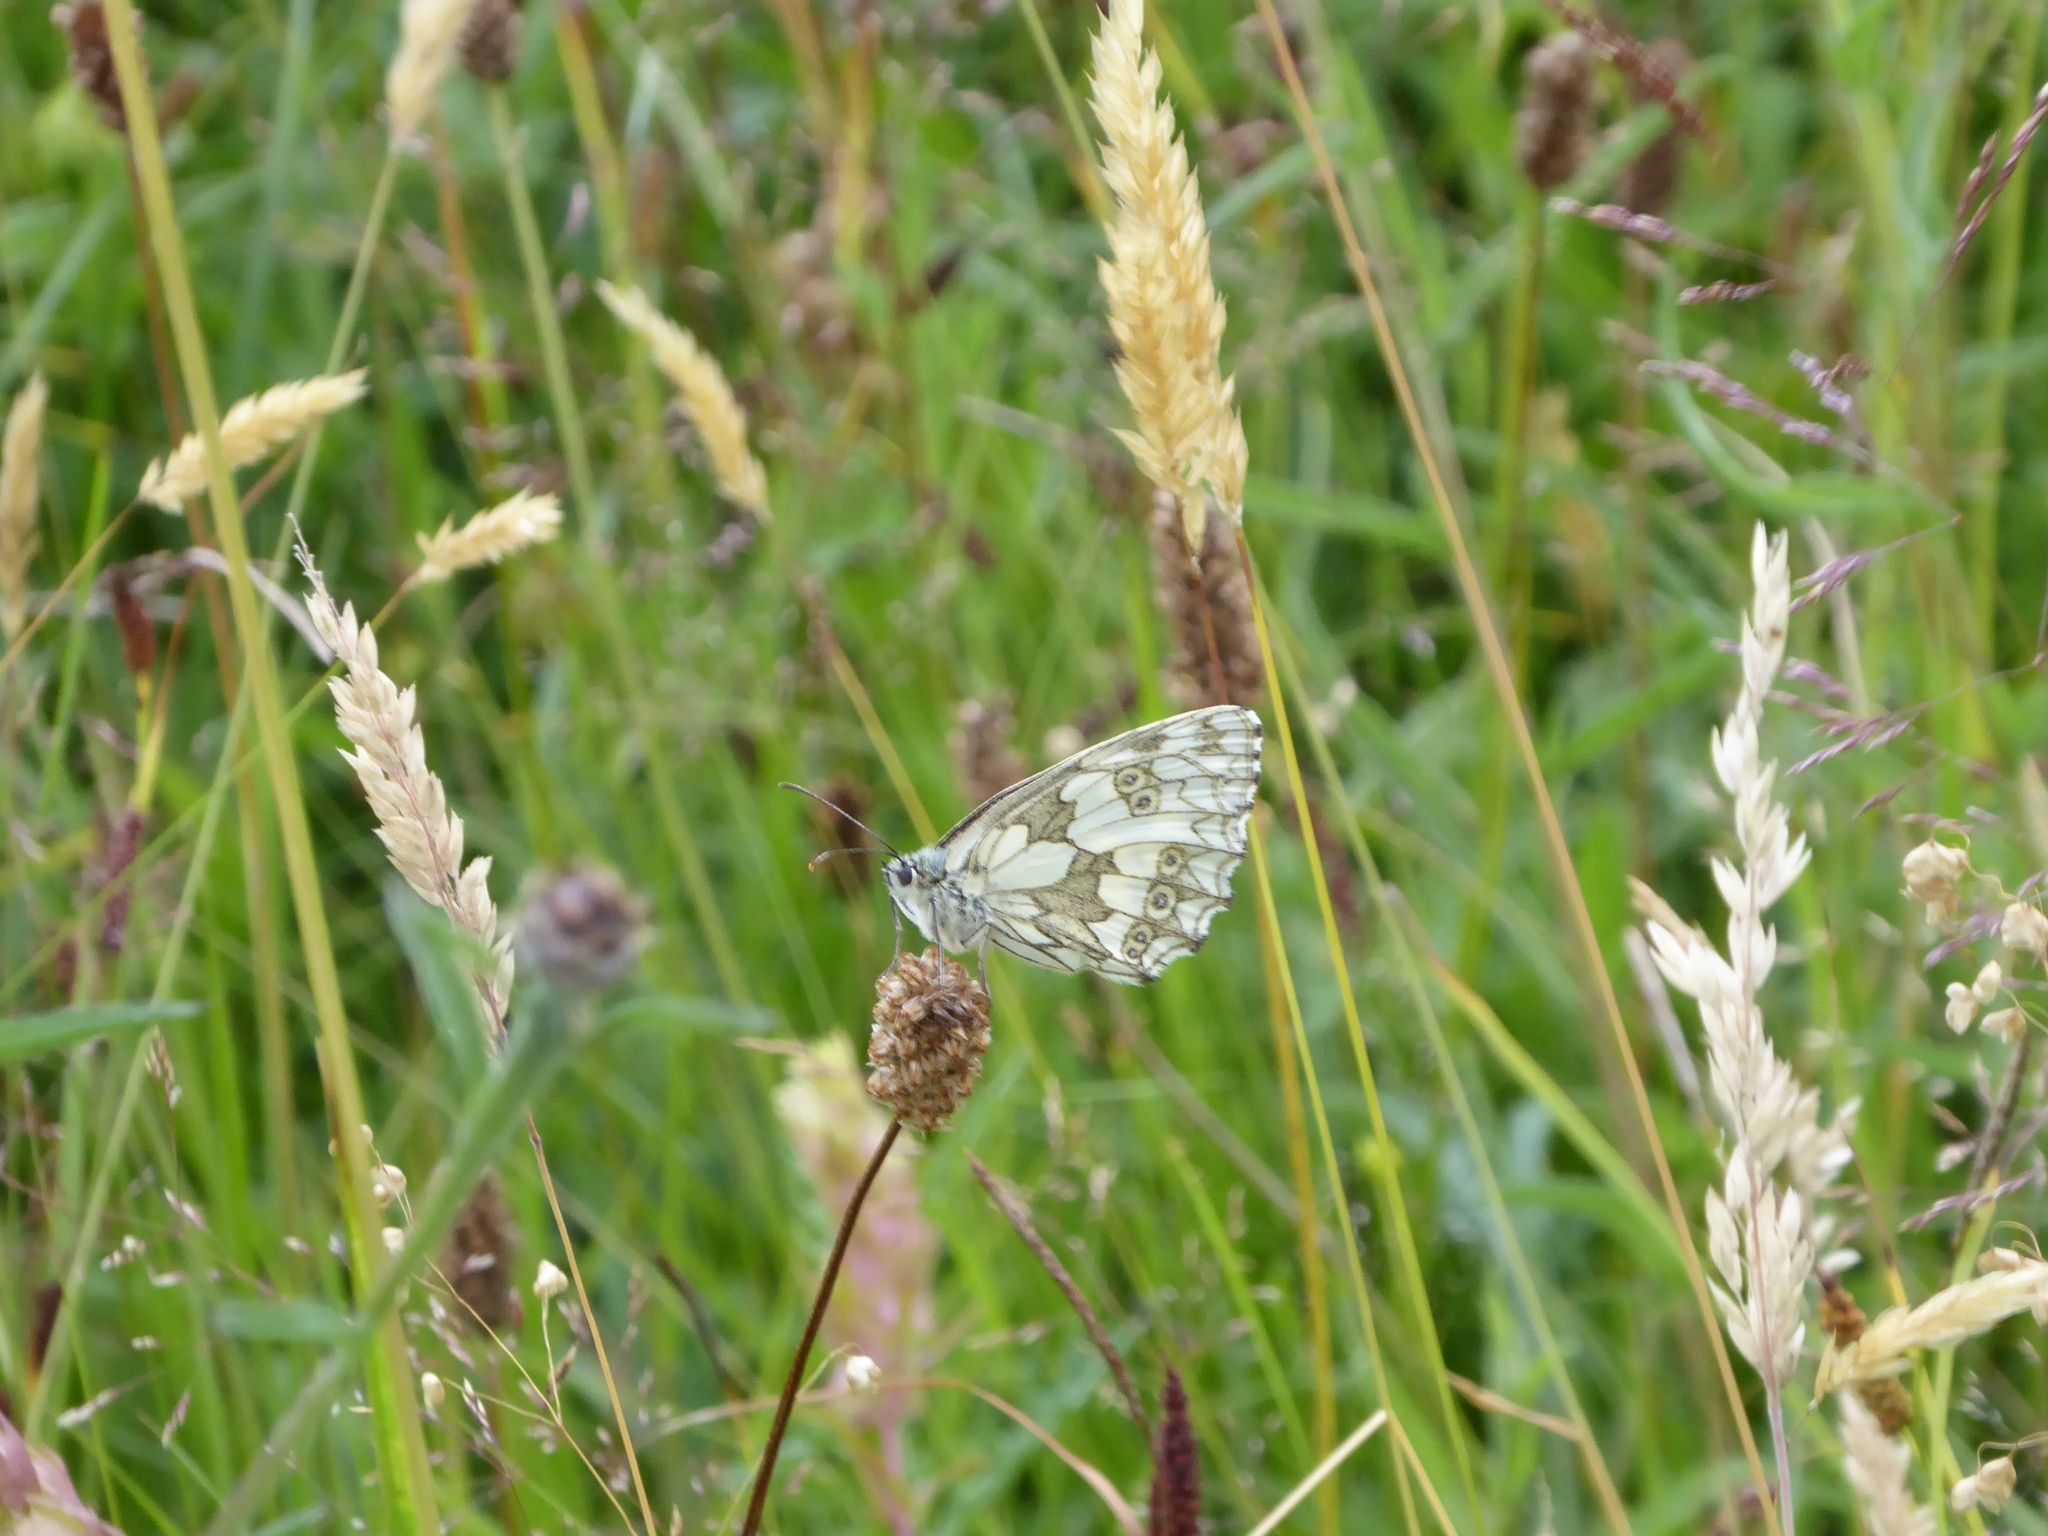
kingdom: Animalia
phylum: Arthropoda
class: Insecta
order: Lepidoptera
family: Nymphalidae
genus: Melanargia
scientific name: Melanargia galathea
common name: Marbled white
